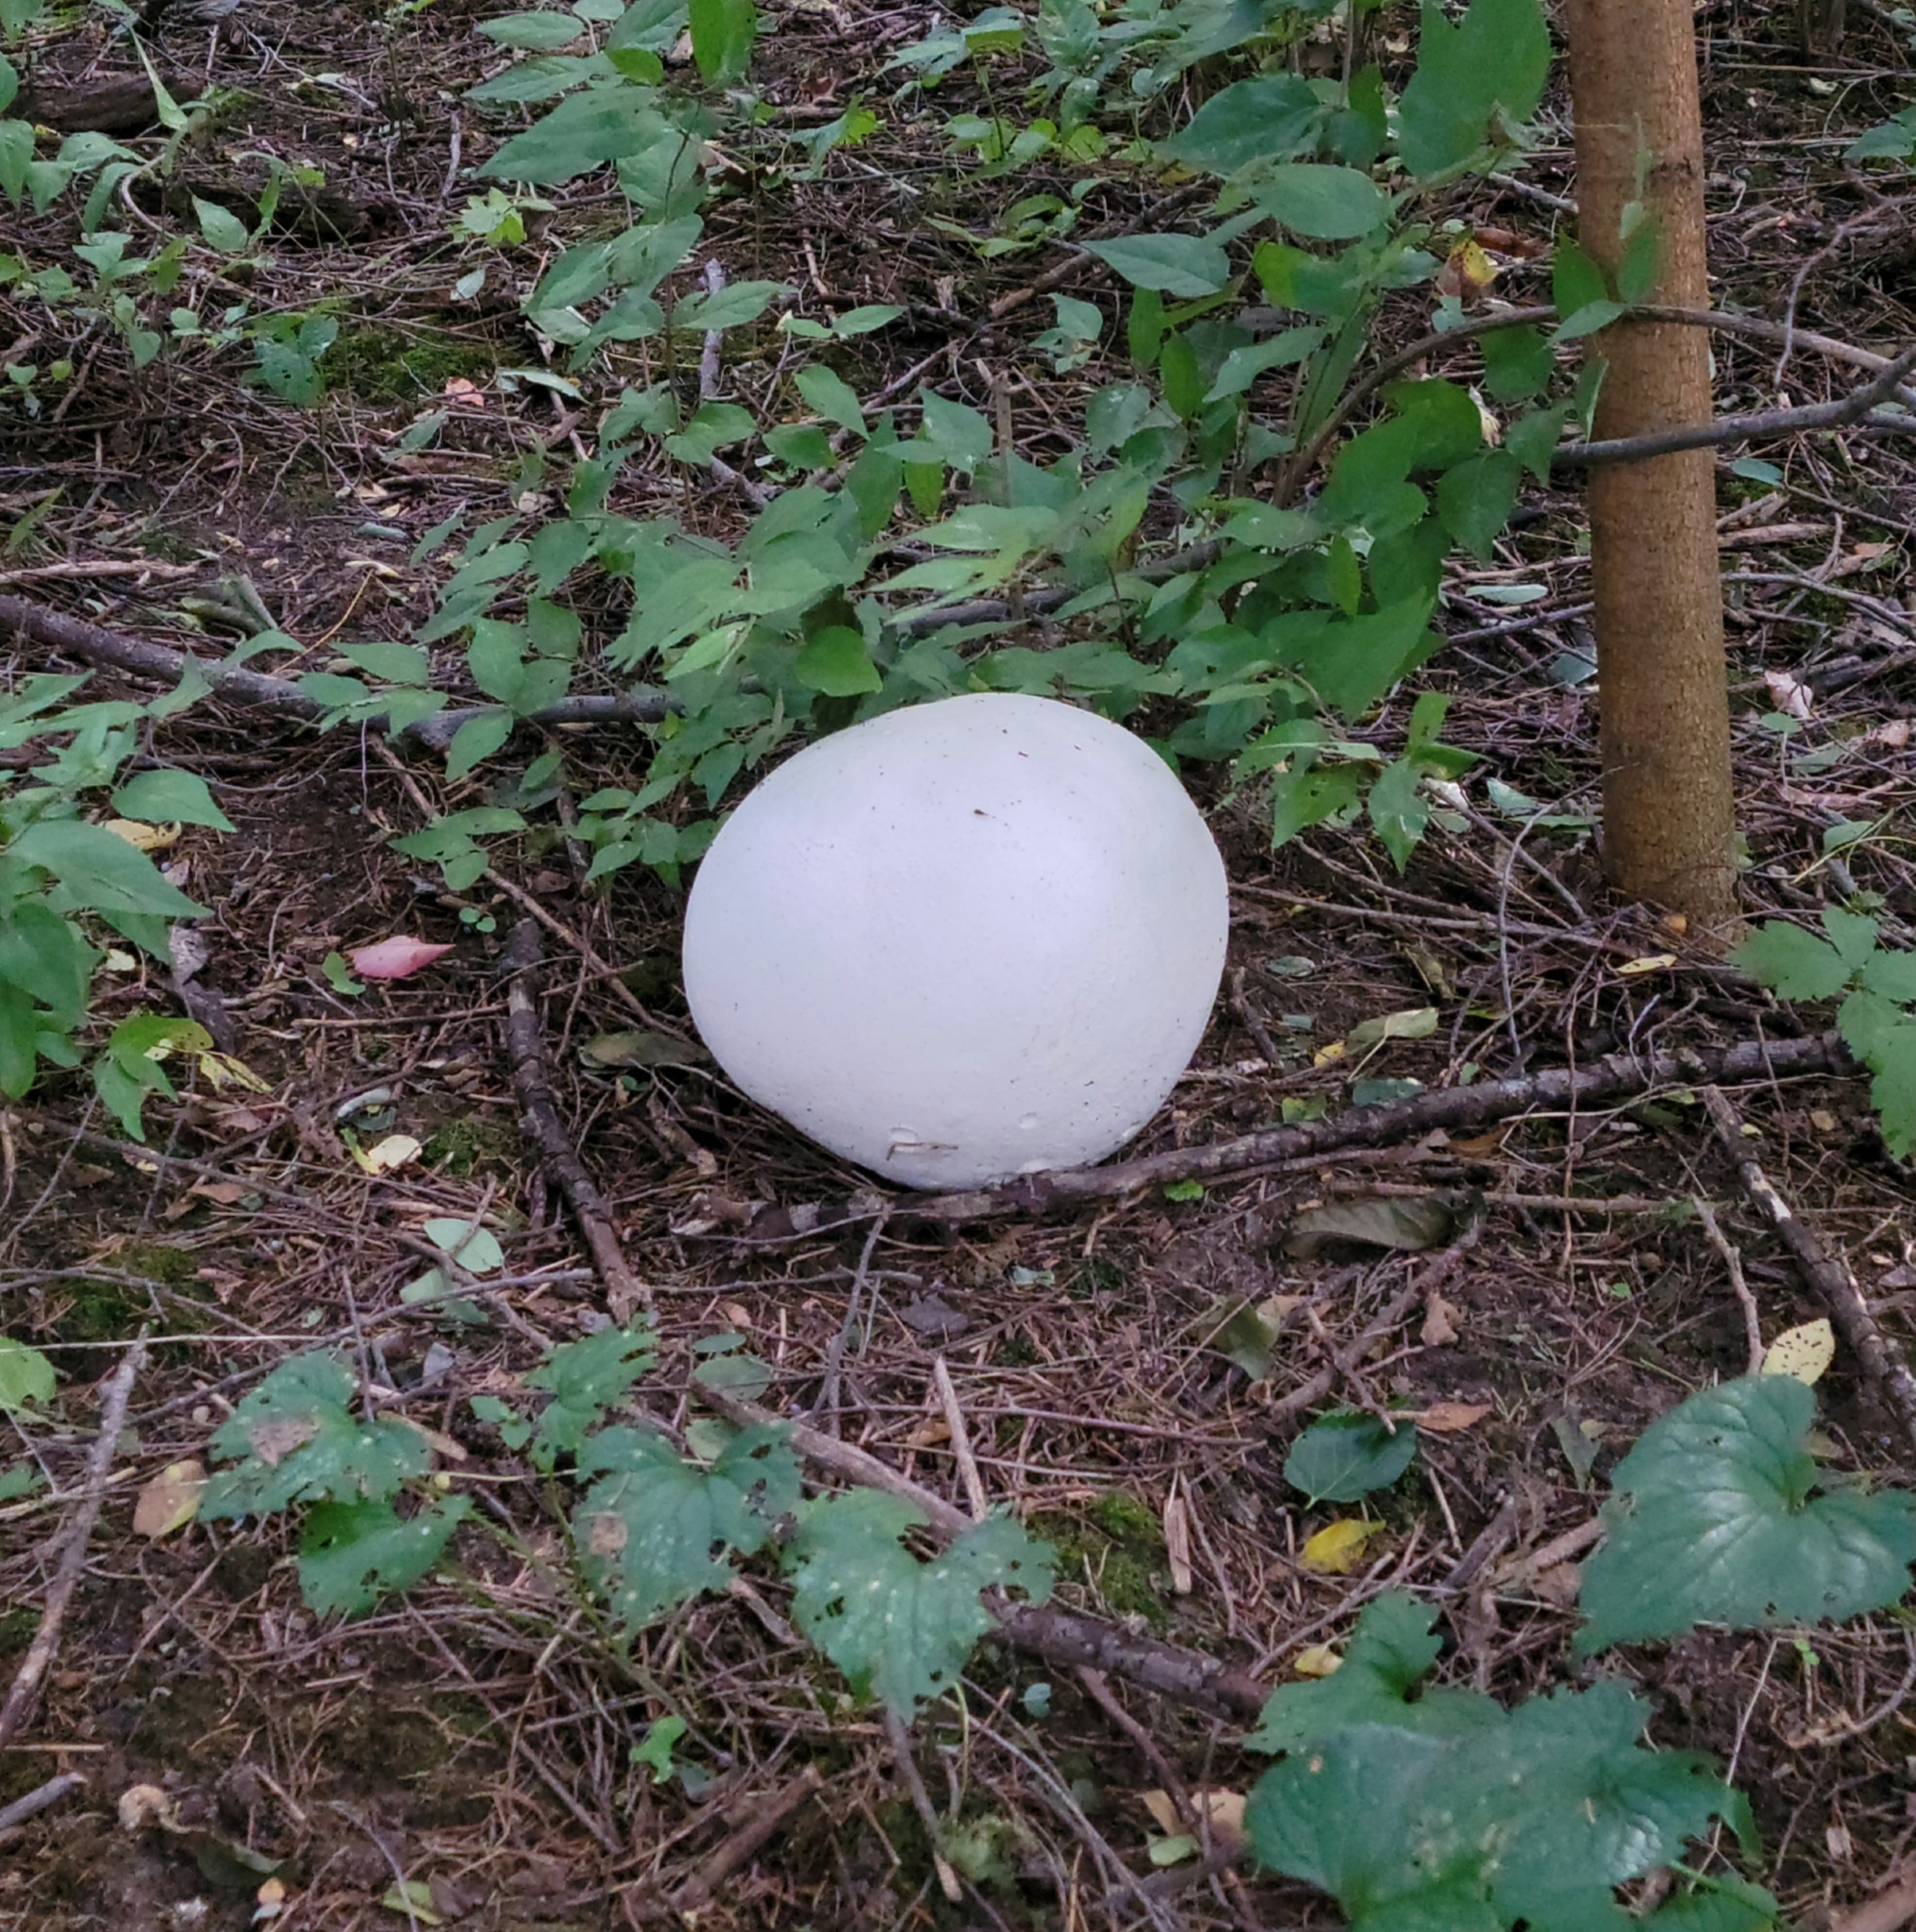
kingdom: Fungi
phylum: Basidiomycota
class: Agaricomycetes
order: Agaricales
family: Lycoperdaceae
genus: Calvatia
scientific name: Calvatia gigantea
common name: Giant puffball
